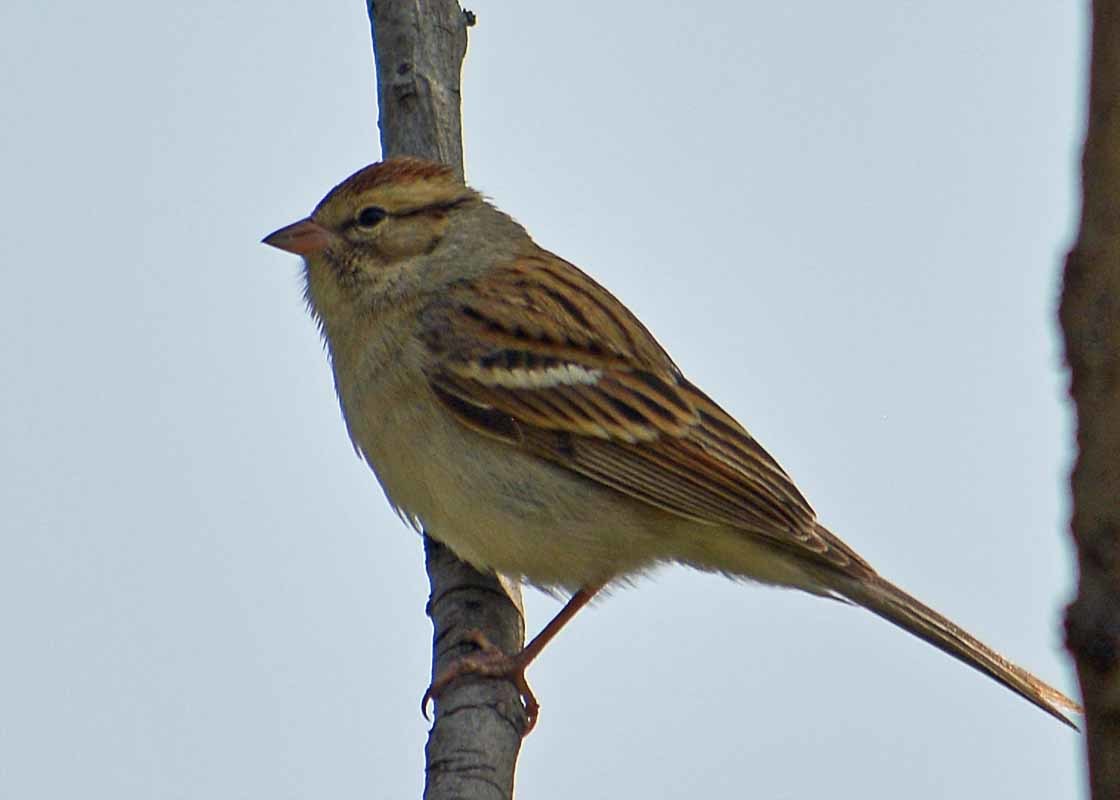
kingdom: Animalia
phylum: Chordata
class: Aves
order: Passeriformes
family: Passerellidae
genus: Spizella
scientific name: Spizella passerina
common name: Chipping sparrow
